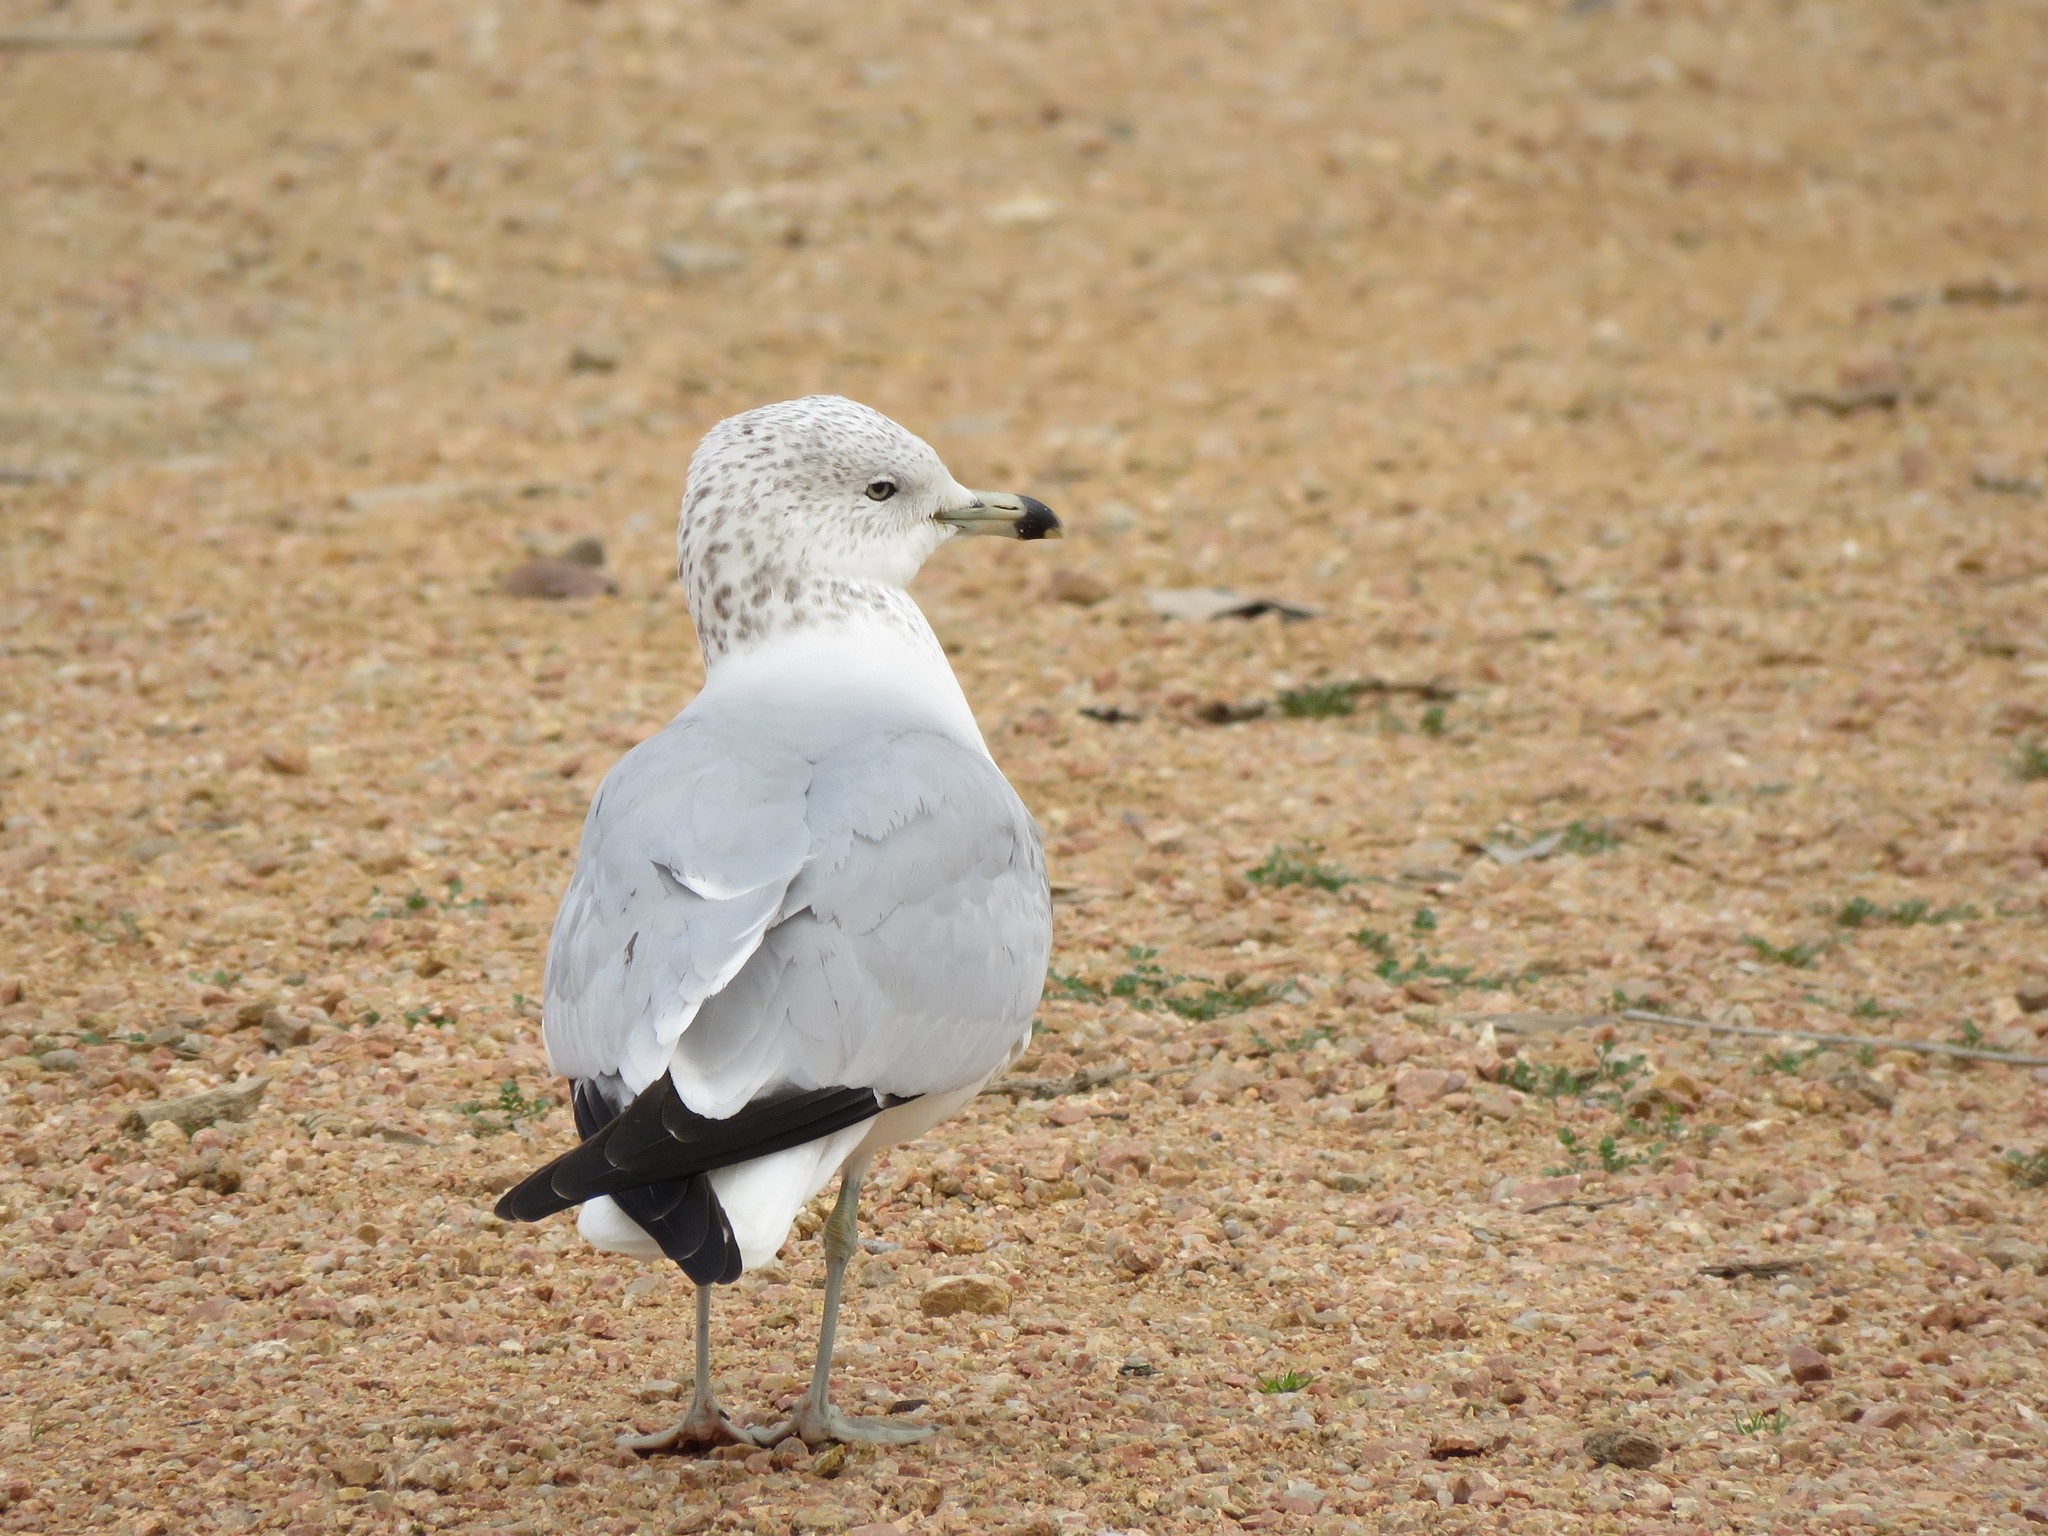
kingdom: Animalia
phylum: Chordata
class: Aves
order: Charadriiformes
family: Laridae
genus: Larus
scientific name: Larus delawarensis
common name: Ring-billed gull
